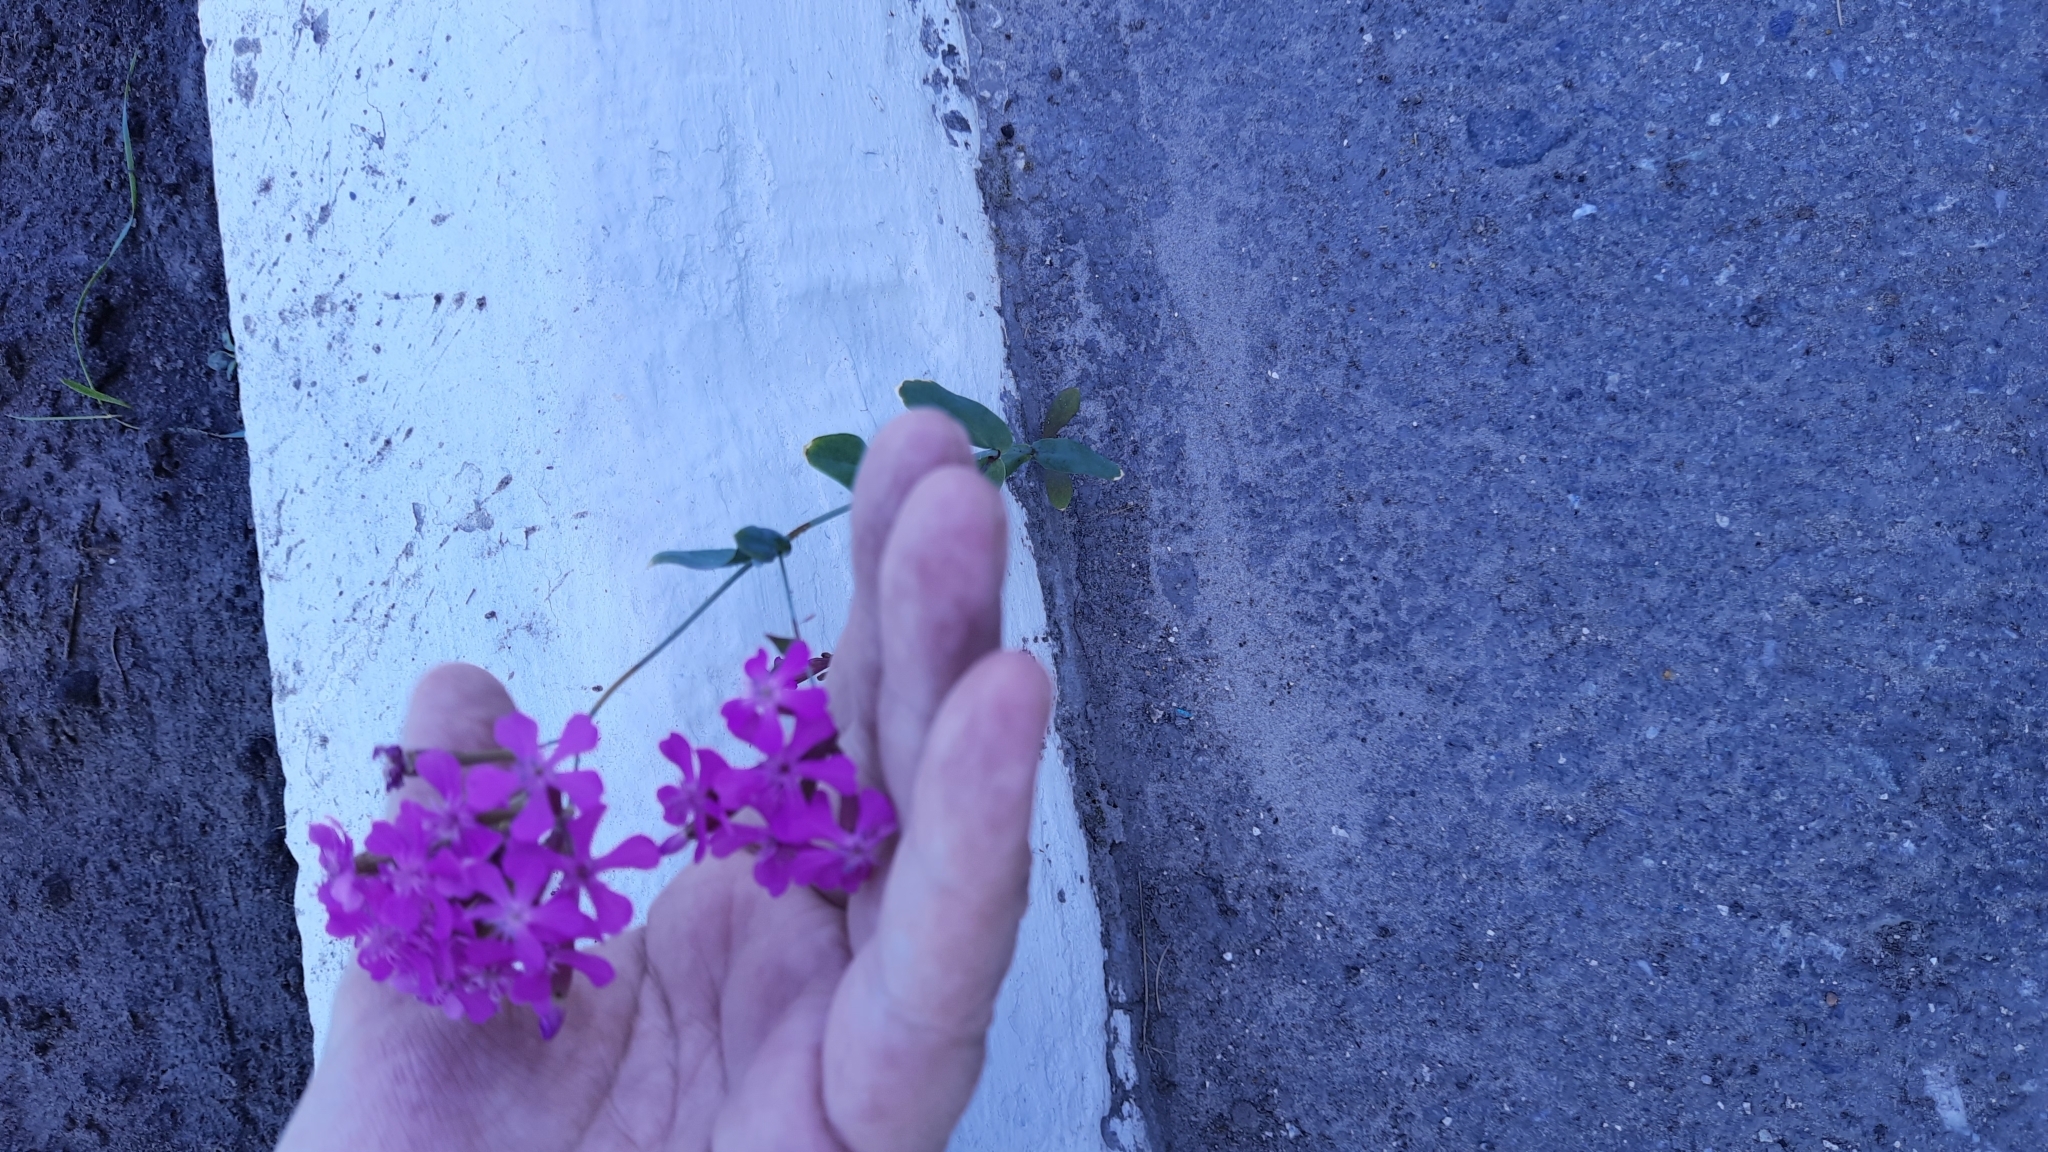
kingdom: Plantae
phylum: Tracheophyta
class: Magnoliopsida
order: Caryophyllales
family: Caryophyllaceae
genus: Atocion
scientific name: Atocion armeria
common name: Sweet william catchfly
